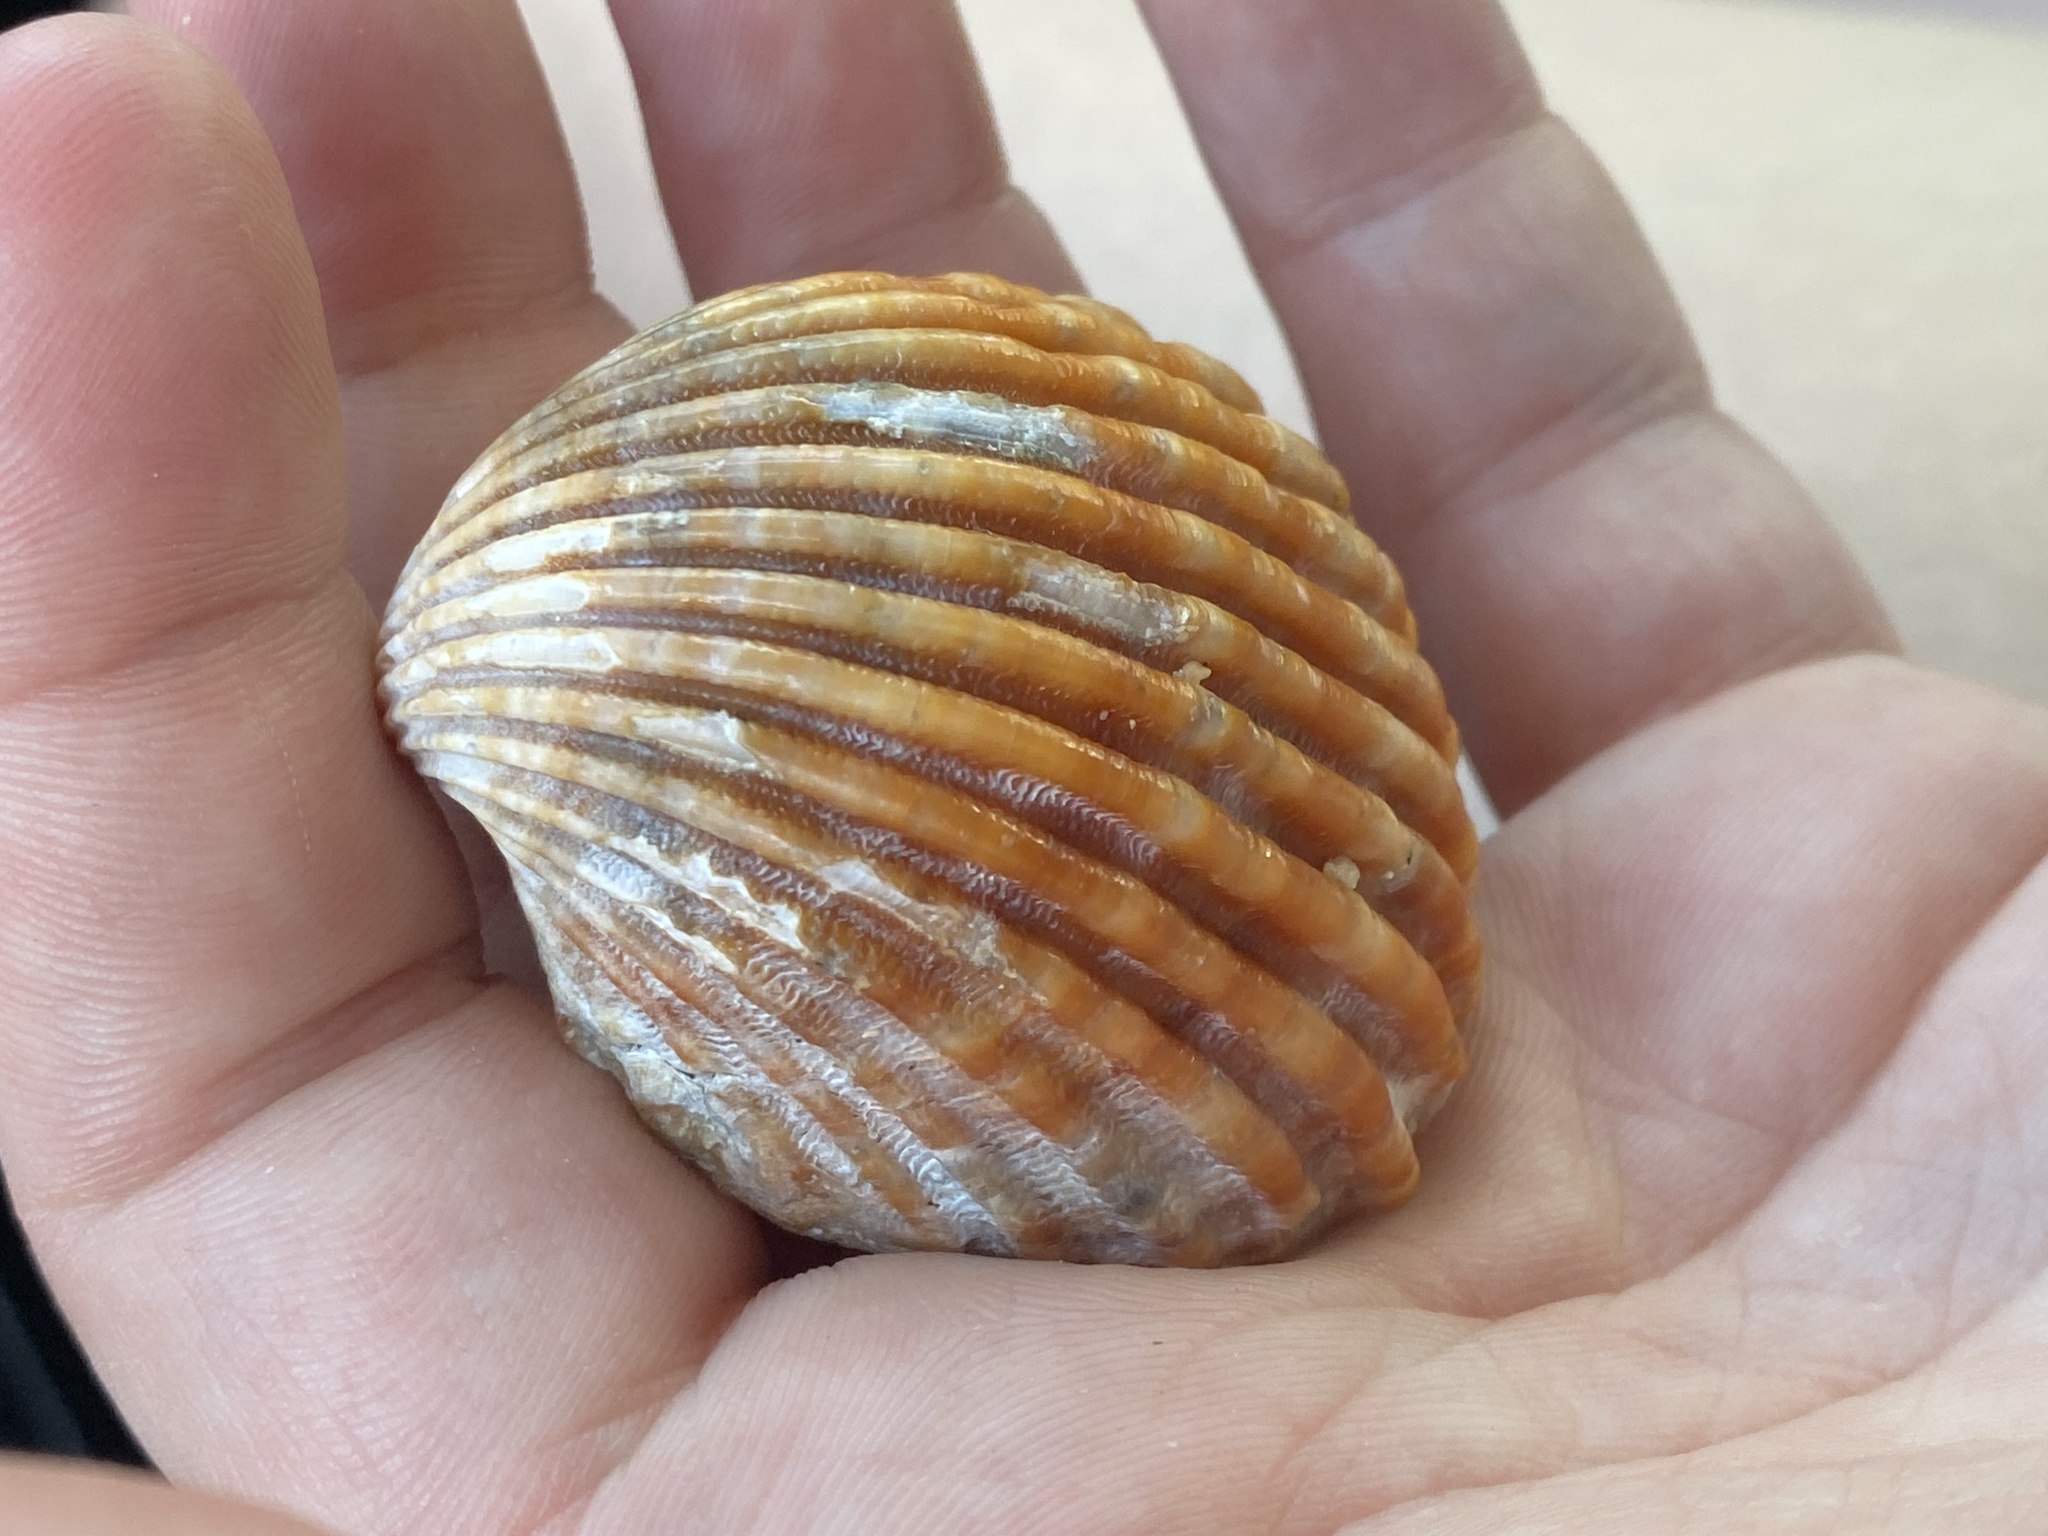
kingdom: Animalia
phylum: Mollusca
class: Bivalvia
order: Cardiida
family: Cardiidae
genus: Acanthocardia
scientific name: Acanthocardia tuberculata
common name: Rough cockle
